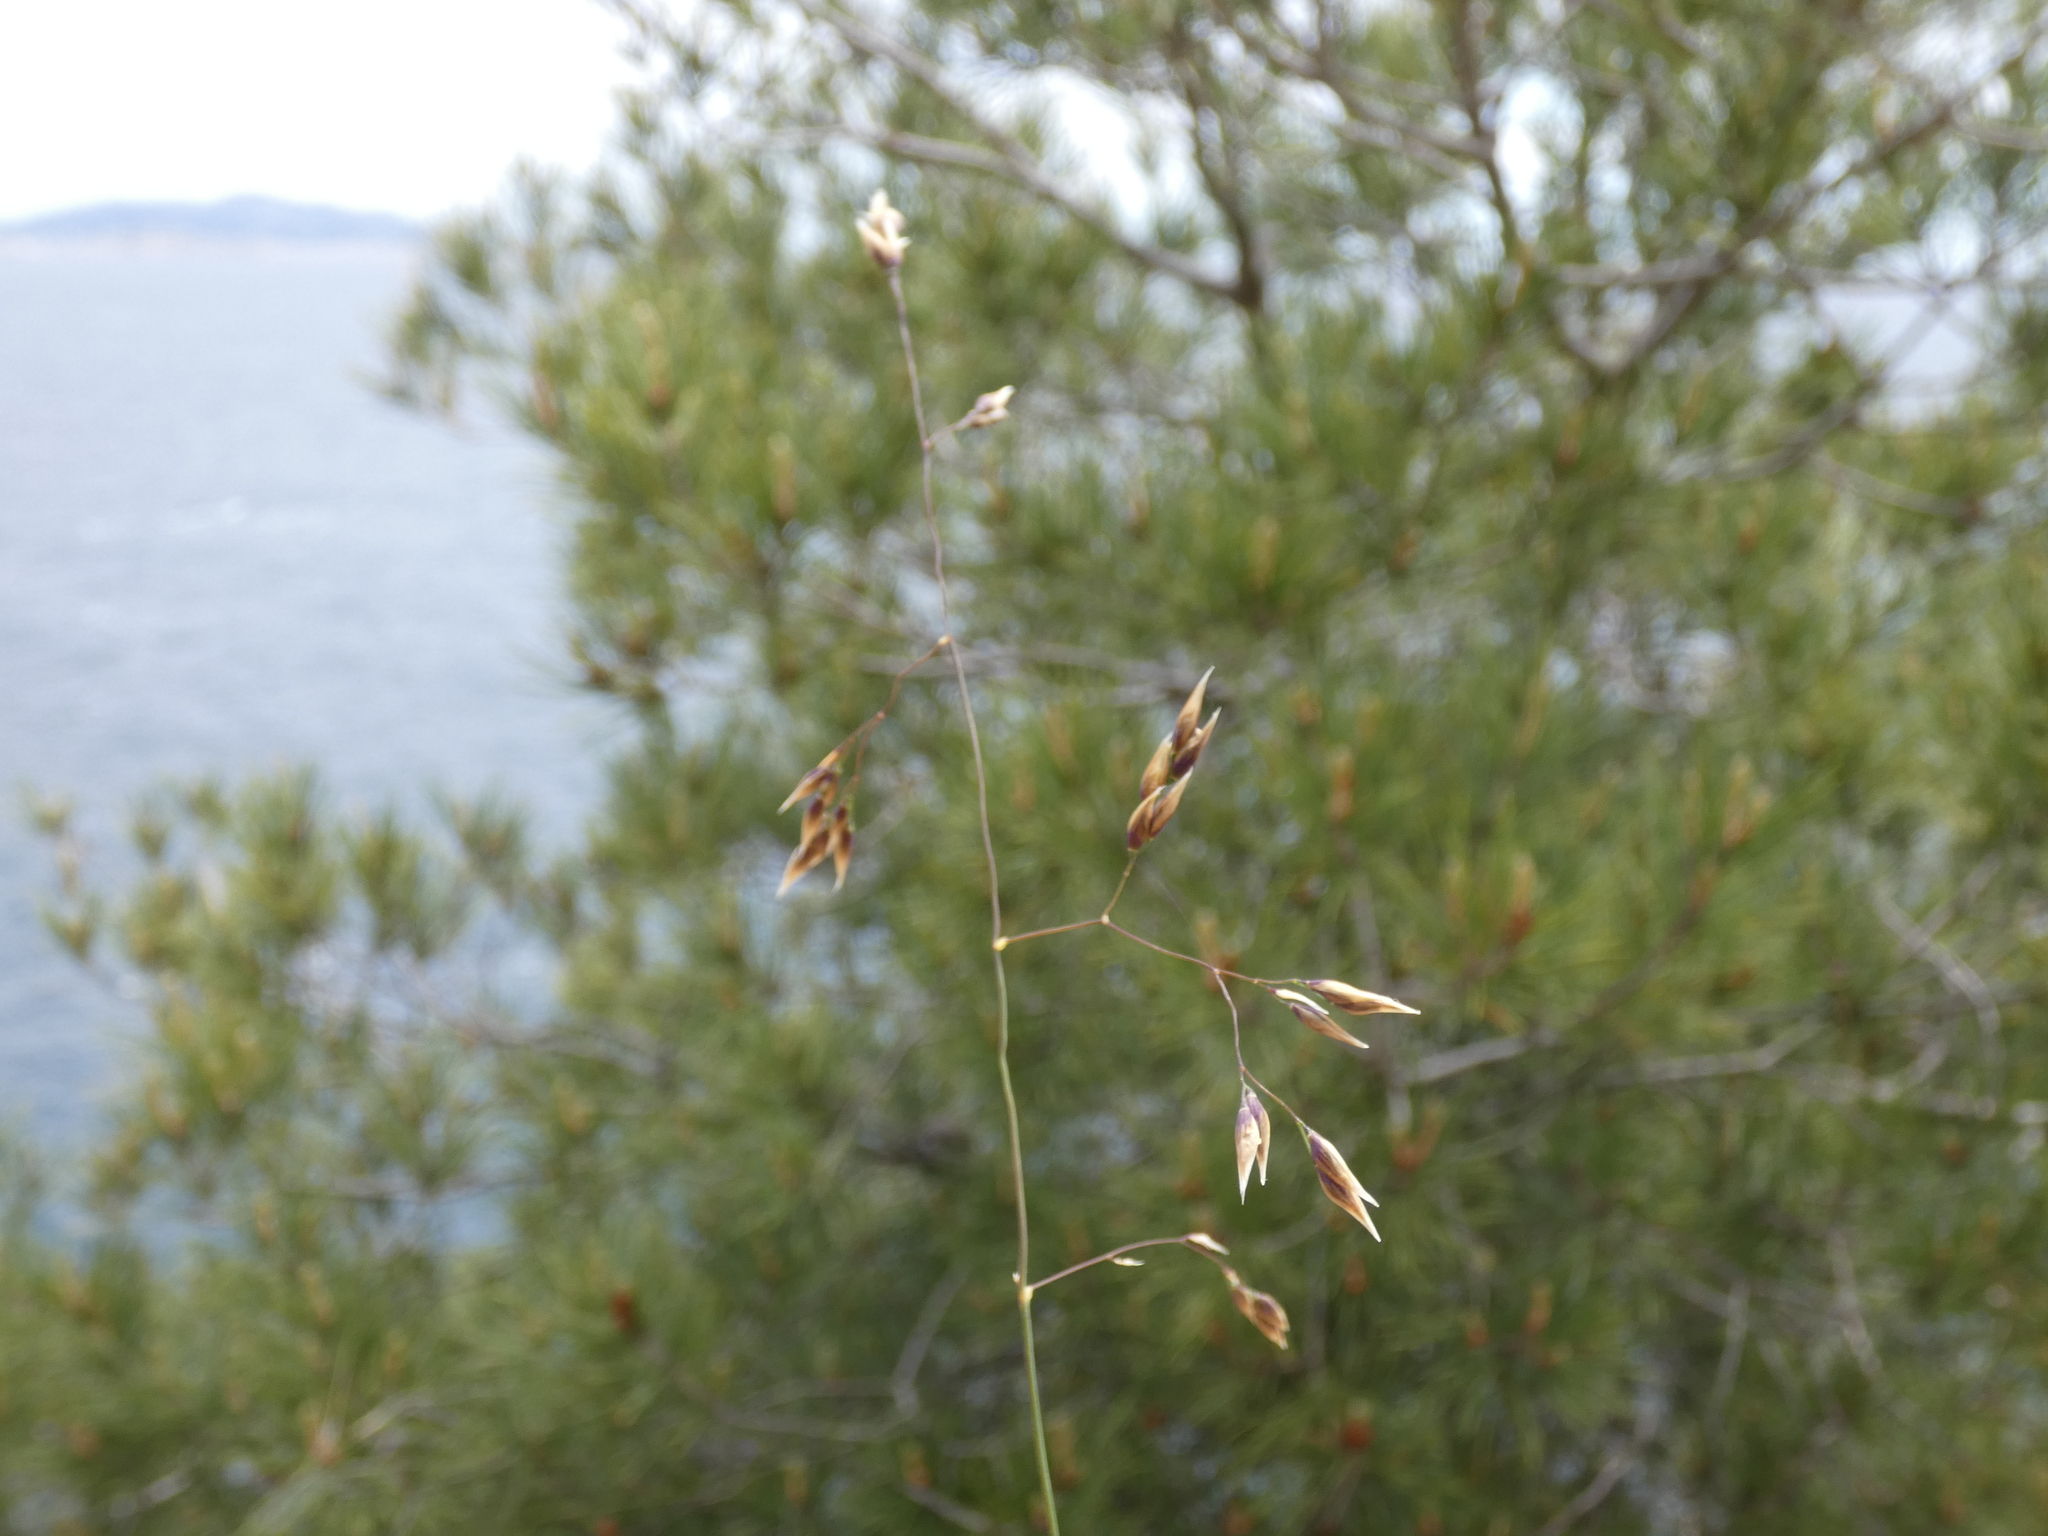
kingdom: Plantae
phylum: Tracheophyta
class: Liliopsida
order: Poales
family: Poaceae
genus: Oryzopsis
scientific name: Oryzopsis coerulescens
